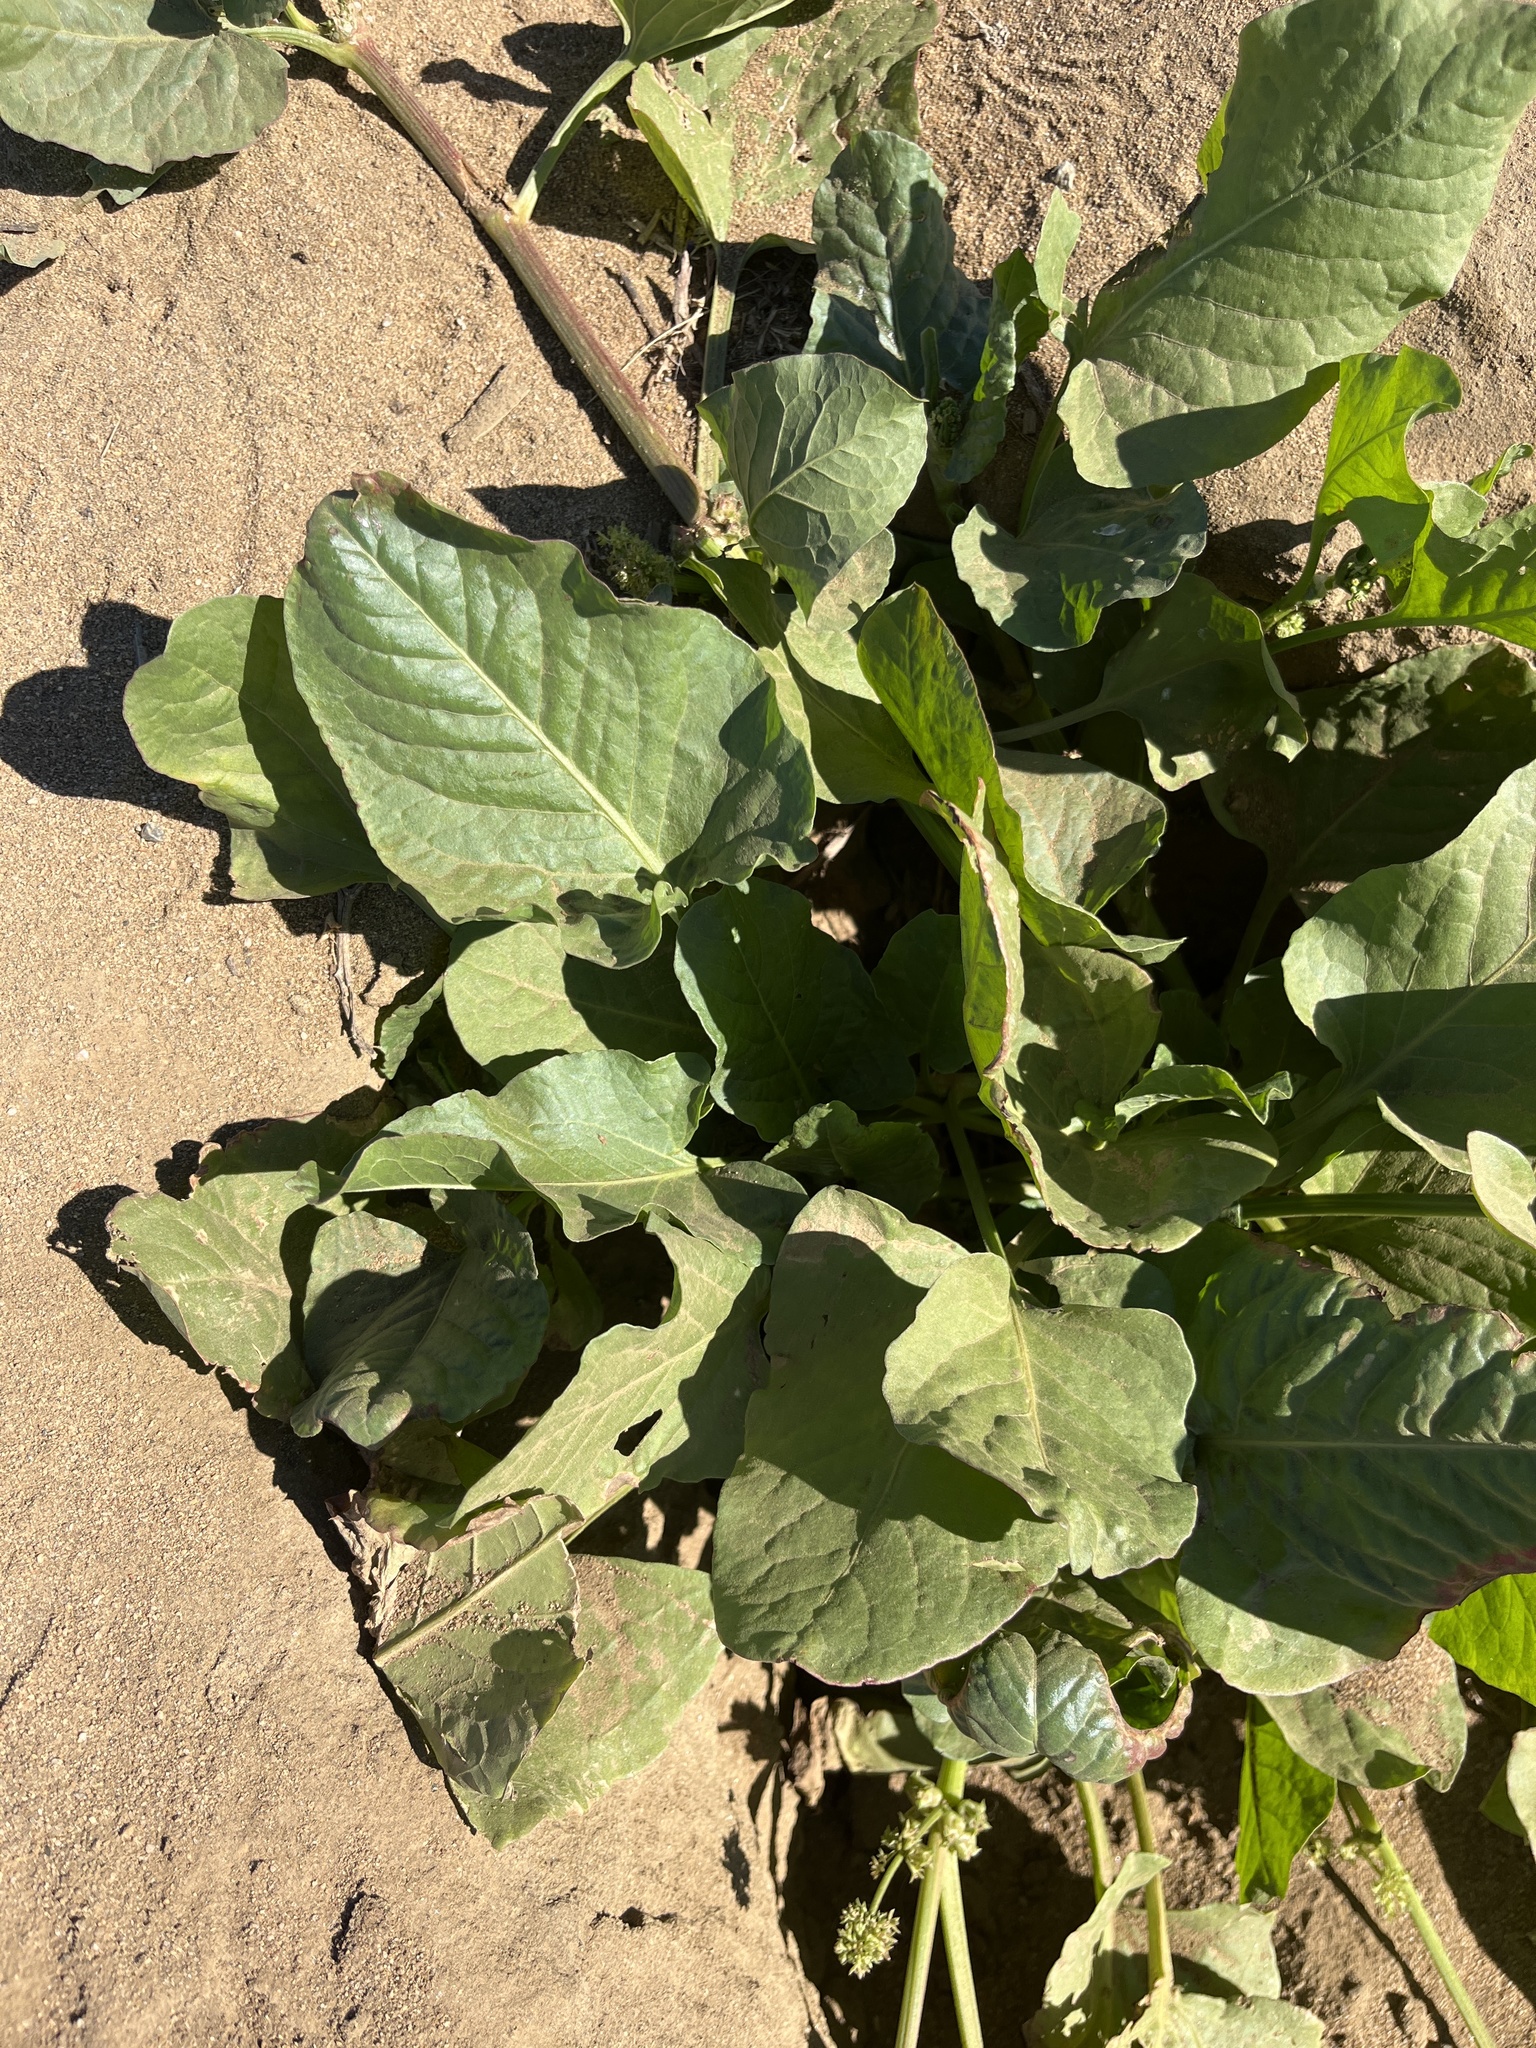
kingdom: Plantae
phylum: Tracheophyta
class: Magnoliopsida
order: Caryophyllales
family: Polygonaceae
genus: Rumex
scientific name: Rumex spinosus
